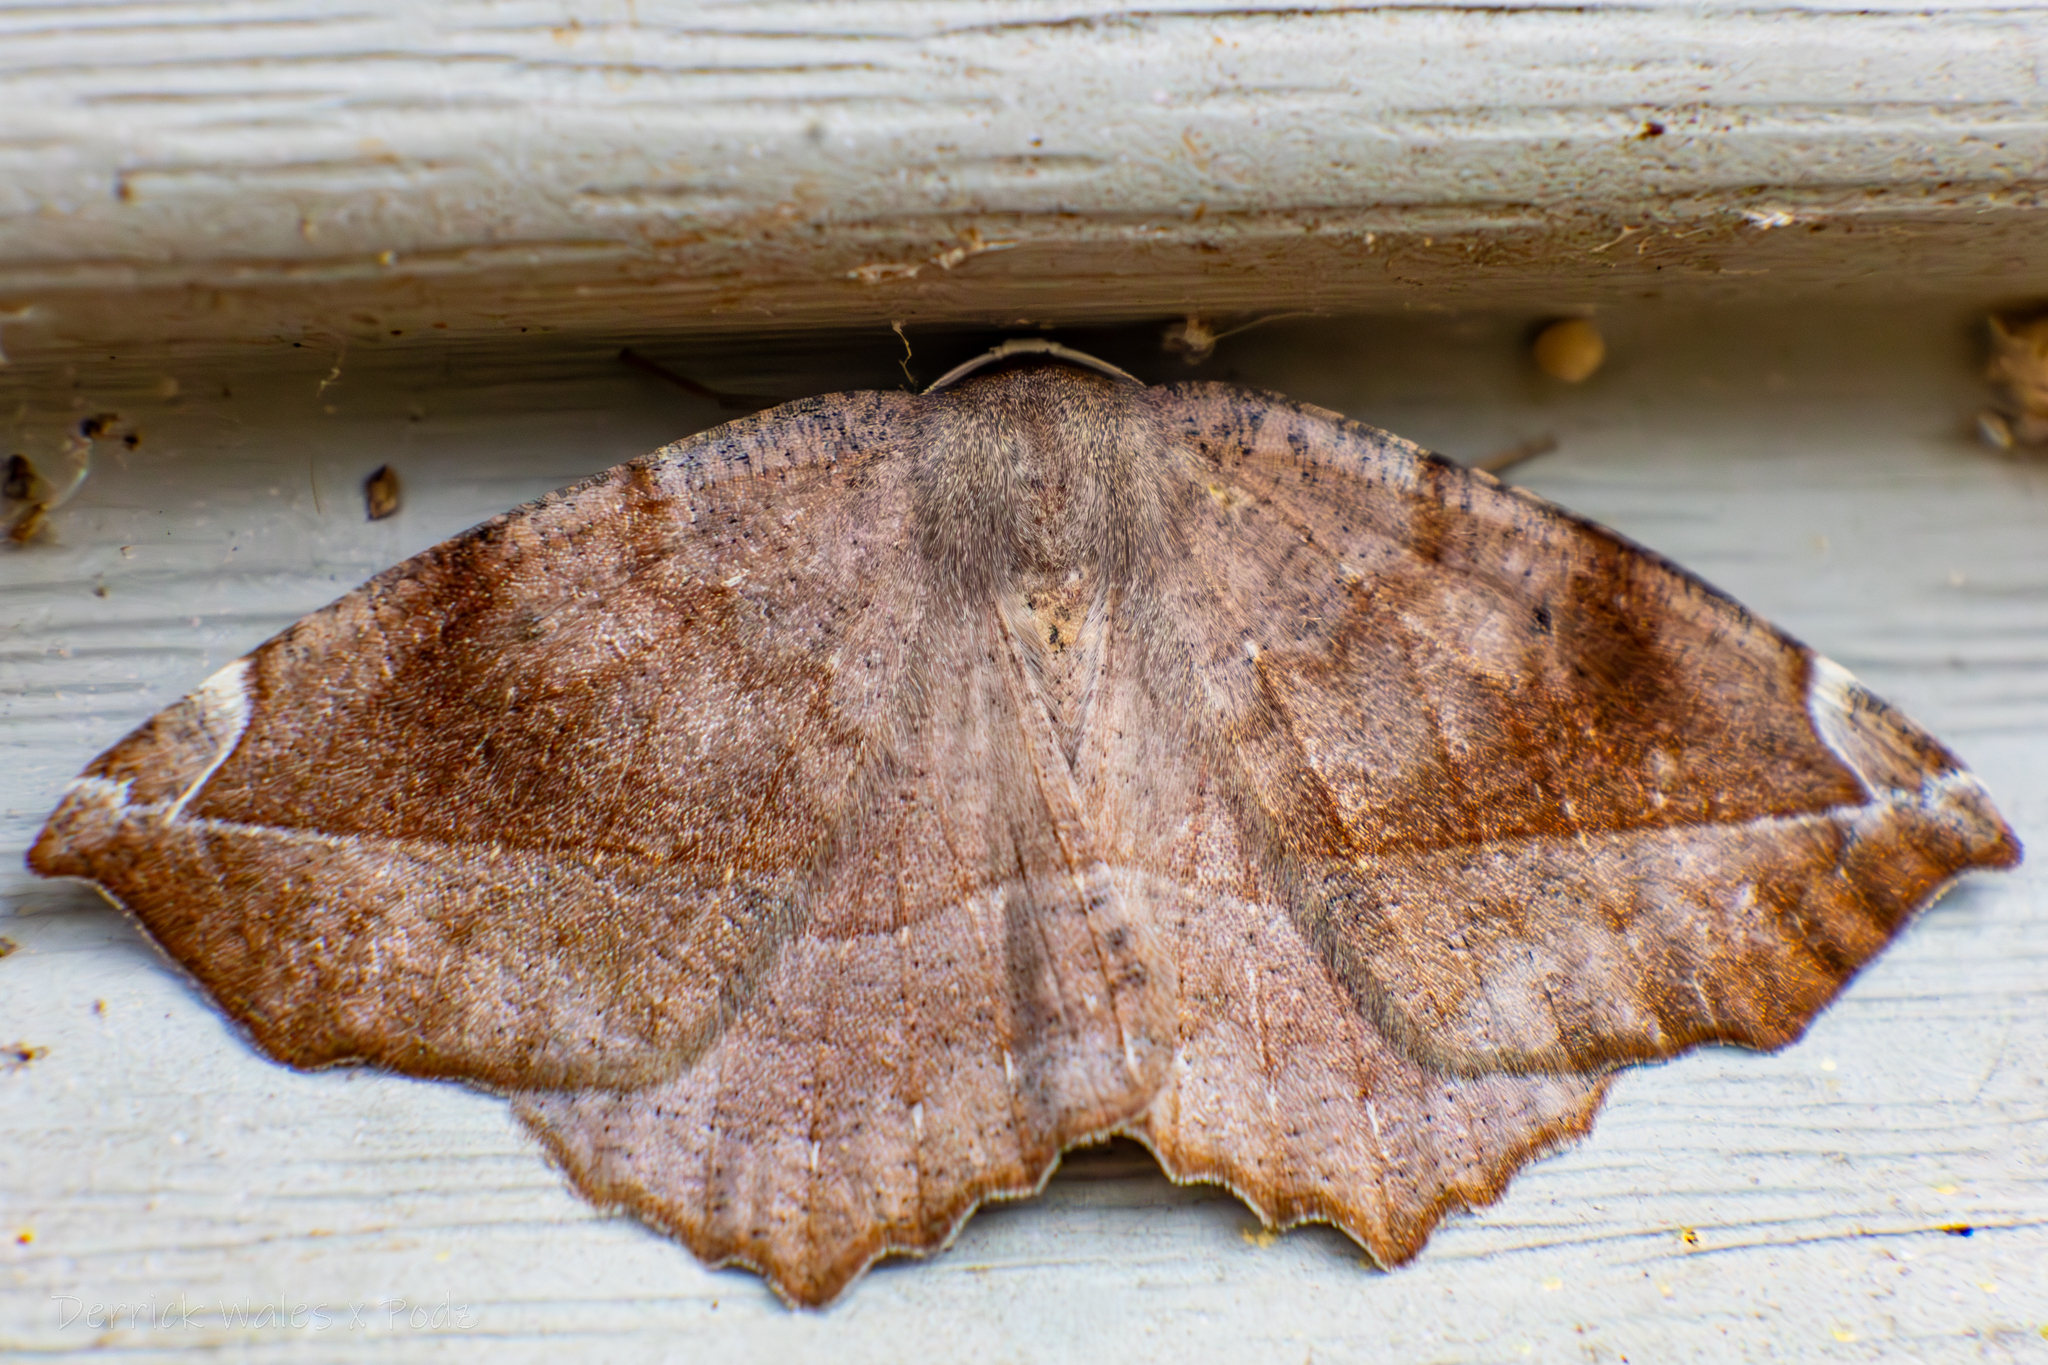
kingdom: Animalia
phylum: Arthropoda
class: Insecta
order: Lepidoptera
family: Geometridae
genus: Eutrapela
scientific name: Eutrapela clemataria
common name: Curved-toothed geometer
